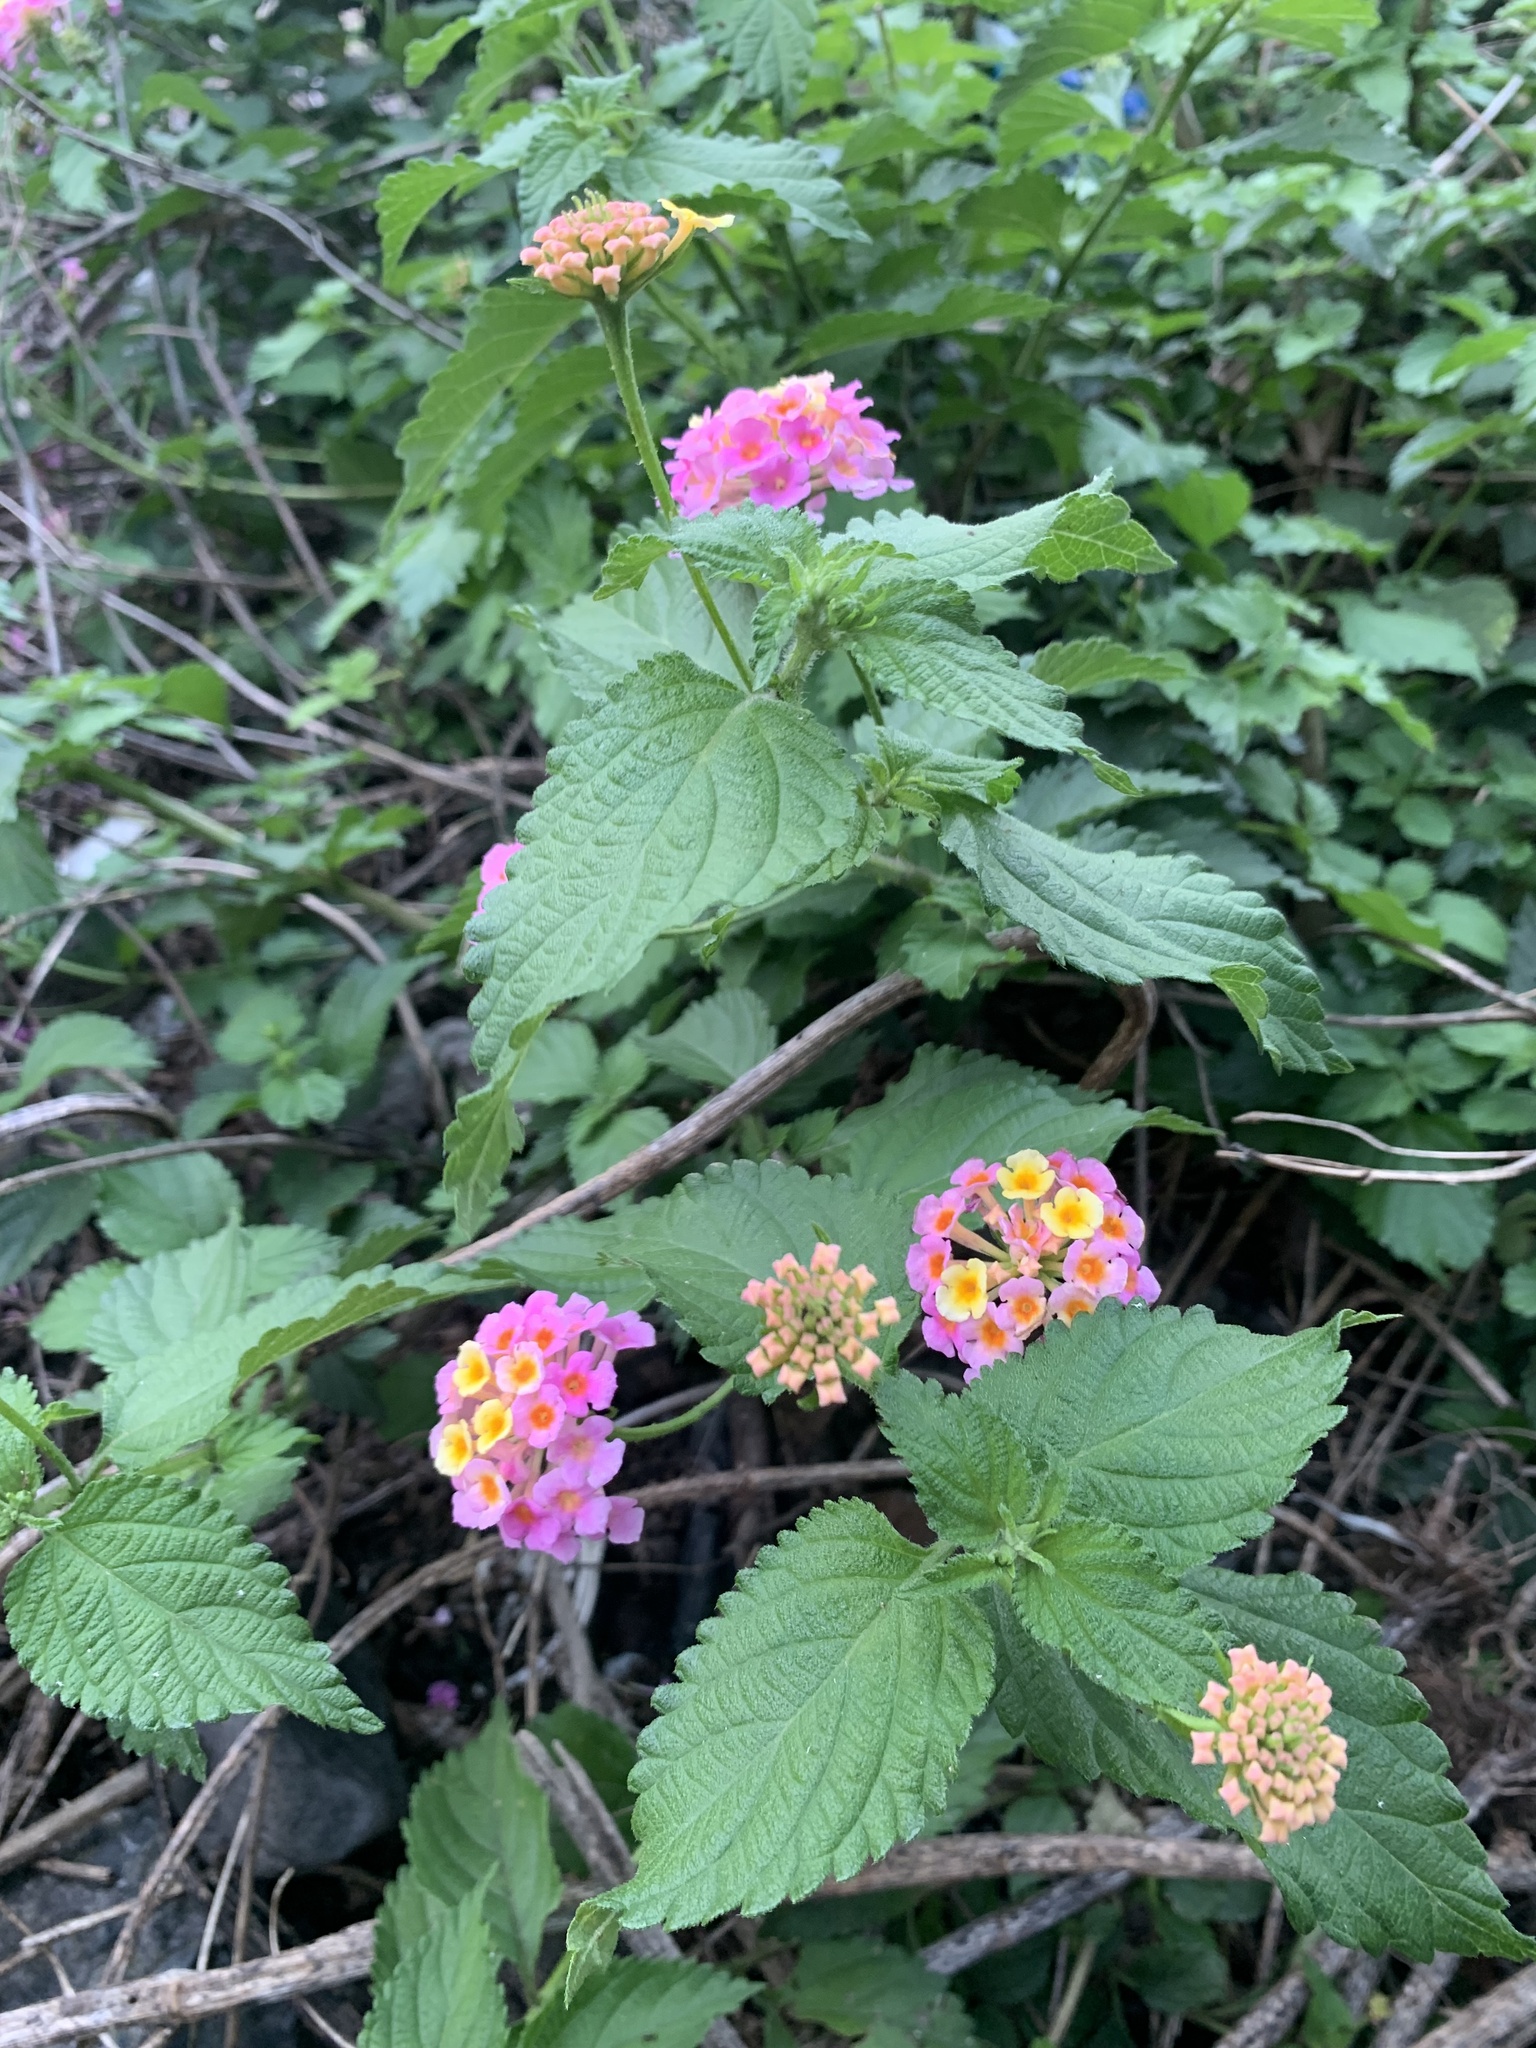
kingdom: Plantae
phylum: Tracheophyta
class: Magnoliopsida
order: Lamiales
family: Verbenaceae
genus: Lantana
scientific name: Lantana camara
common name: Lantana
